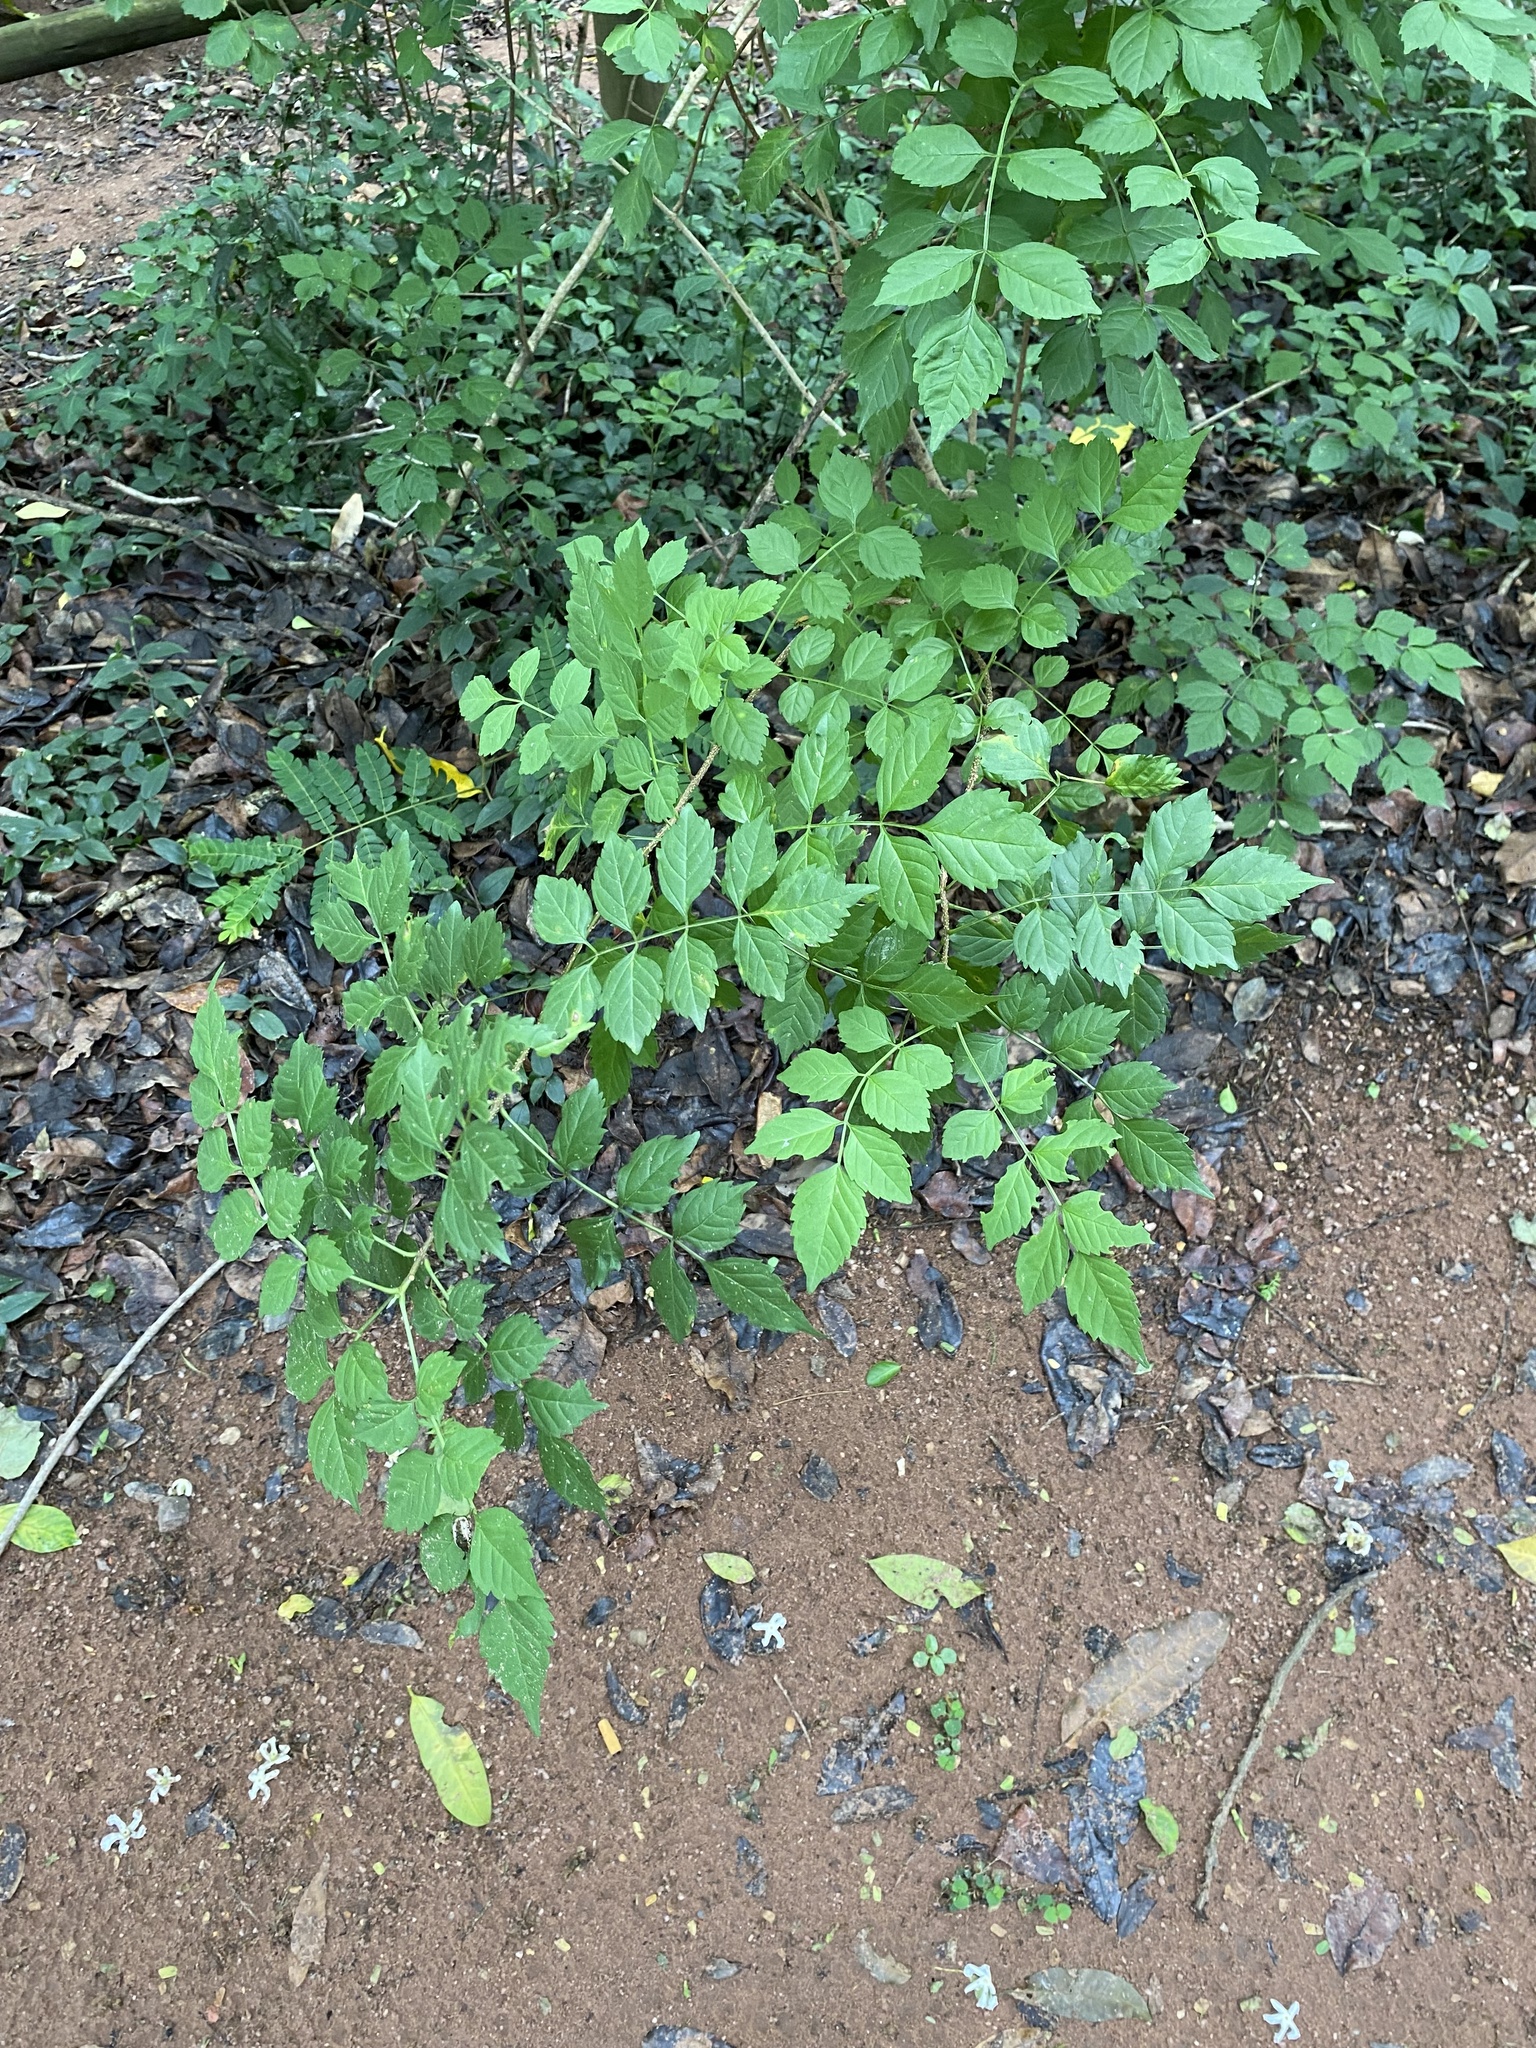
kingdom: Plantae
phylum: Tracheophyta
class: Magnoliopsida
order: Lamiales
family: Bignoniaceae
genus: Tecomaria
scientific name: Tecomaria capensis
